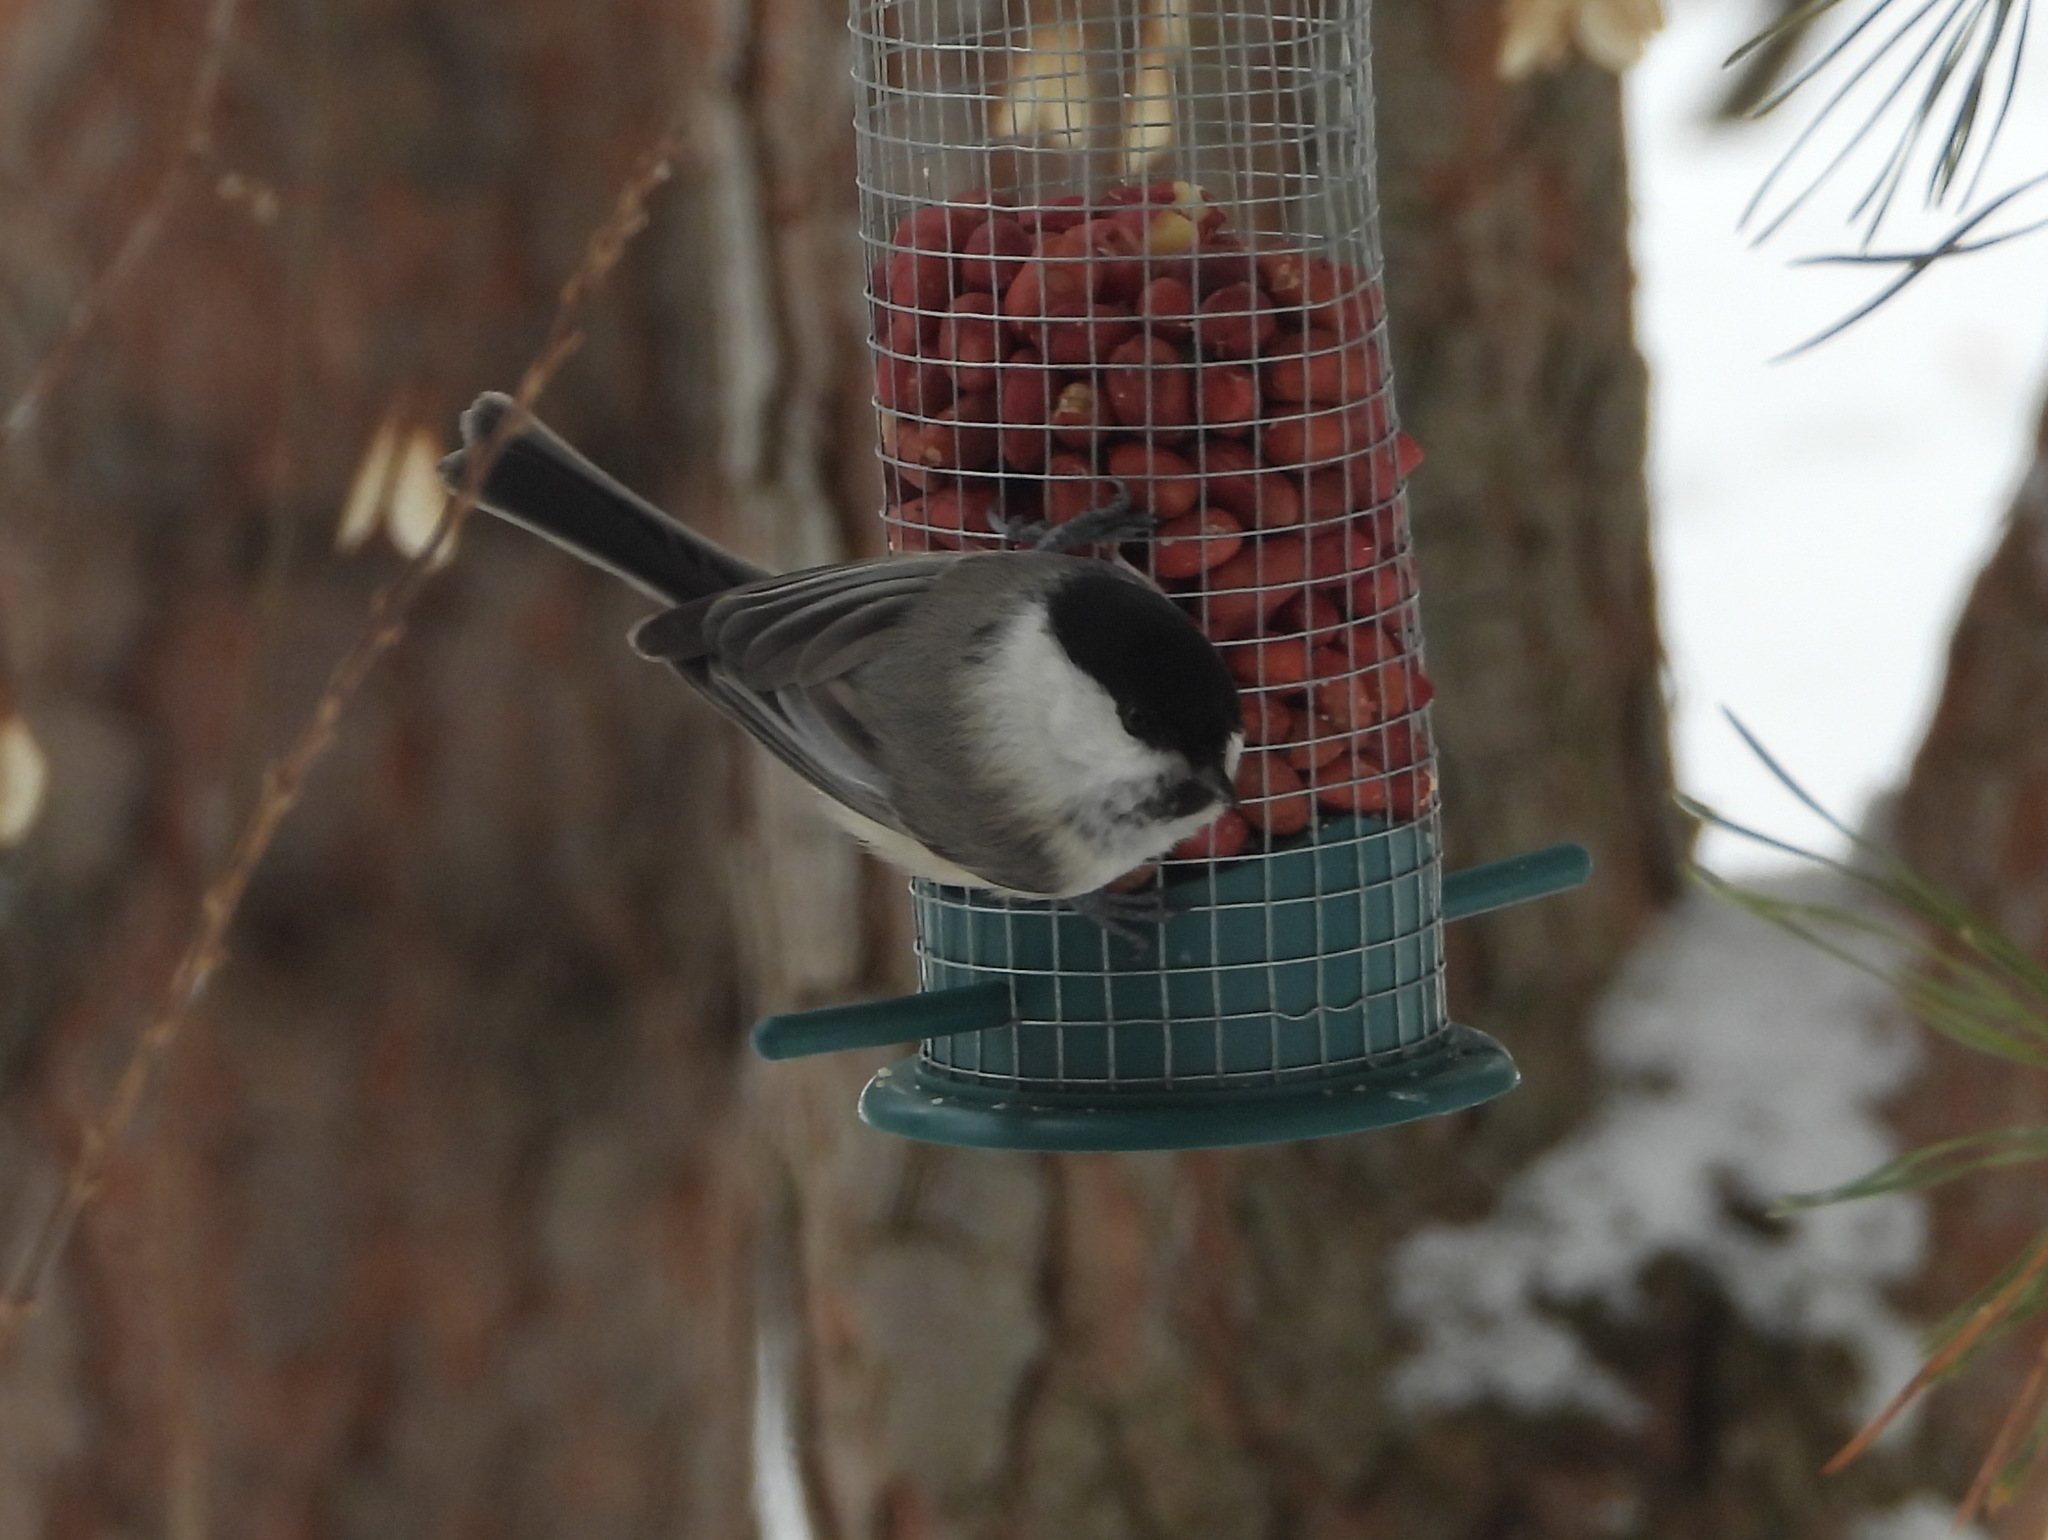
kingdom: Animalia
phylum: Chordata
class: Aves
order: Passeriformes
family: Paridae
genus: Poecile
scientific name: Poecile montanus
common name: Willow tit
